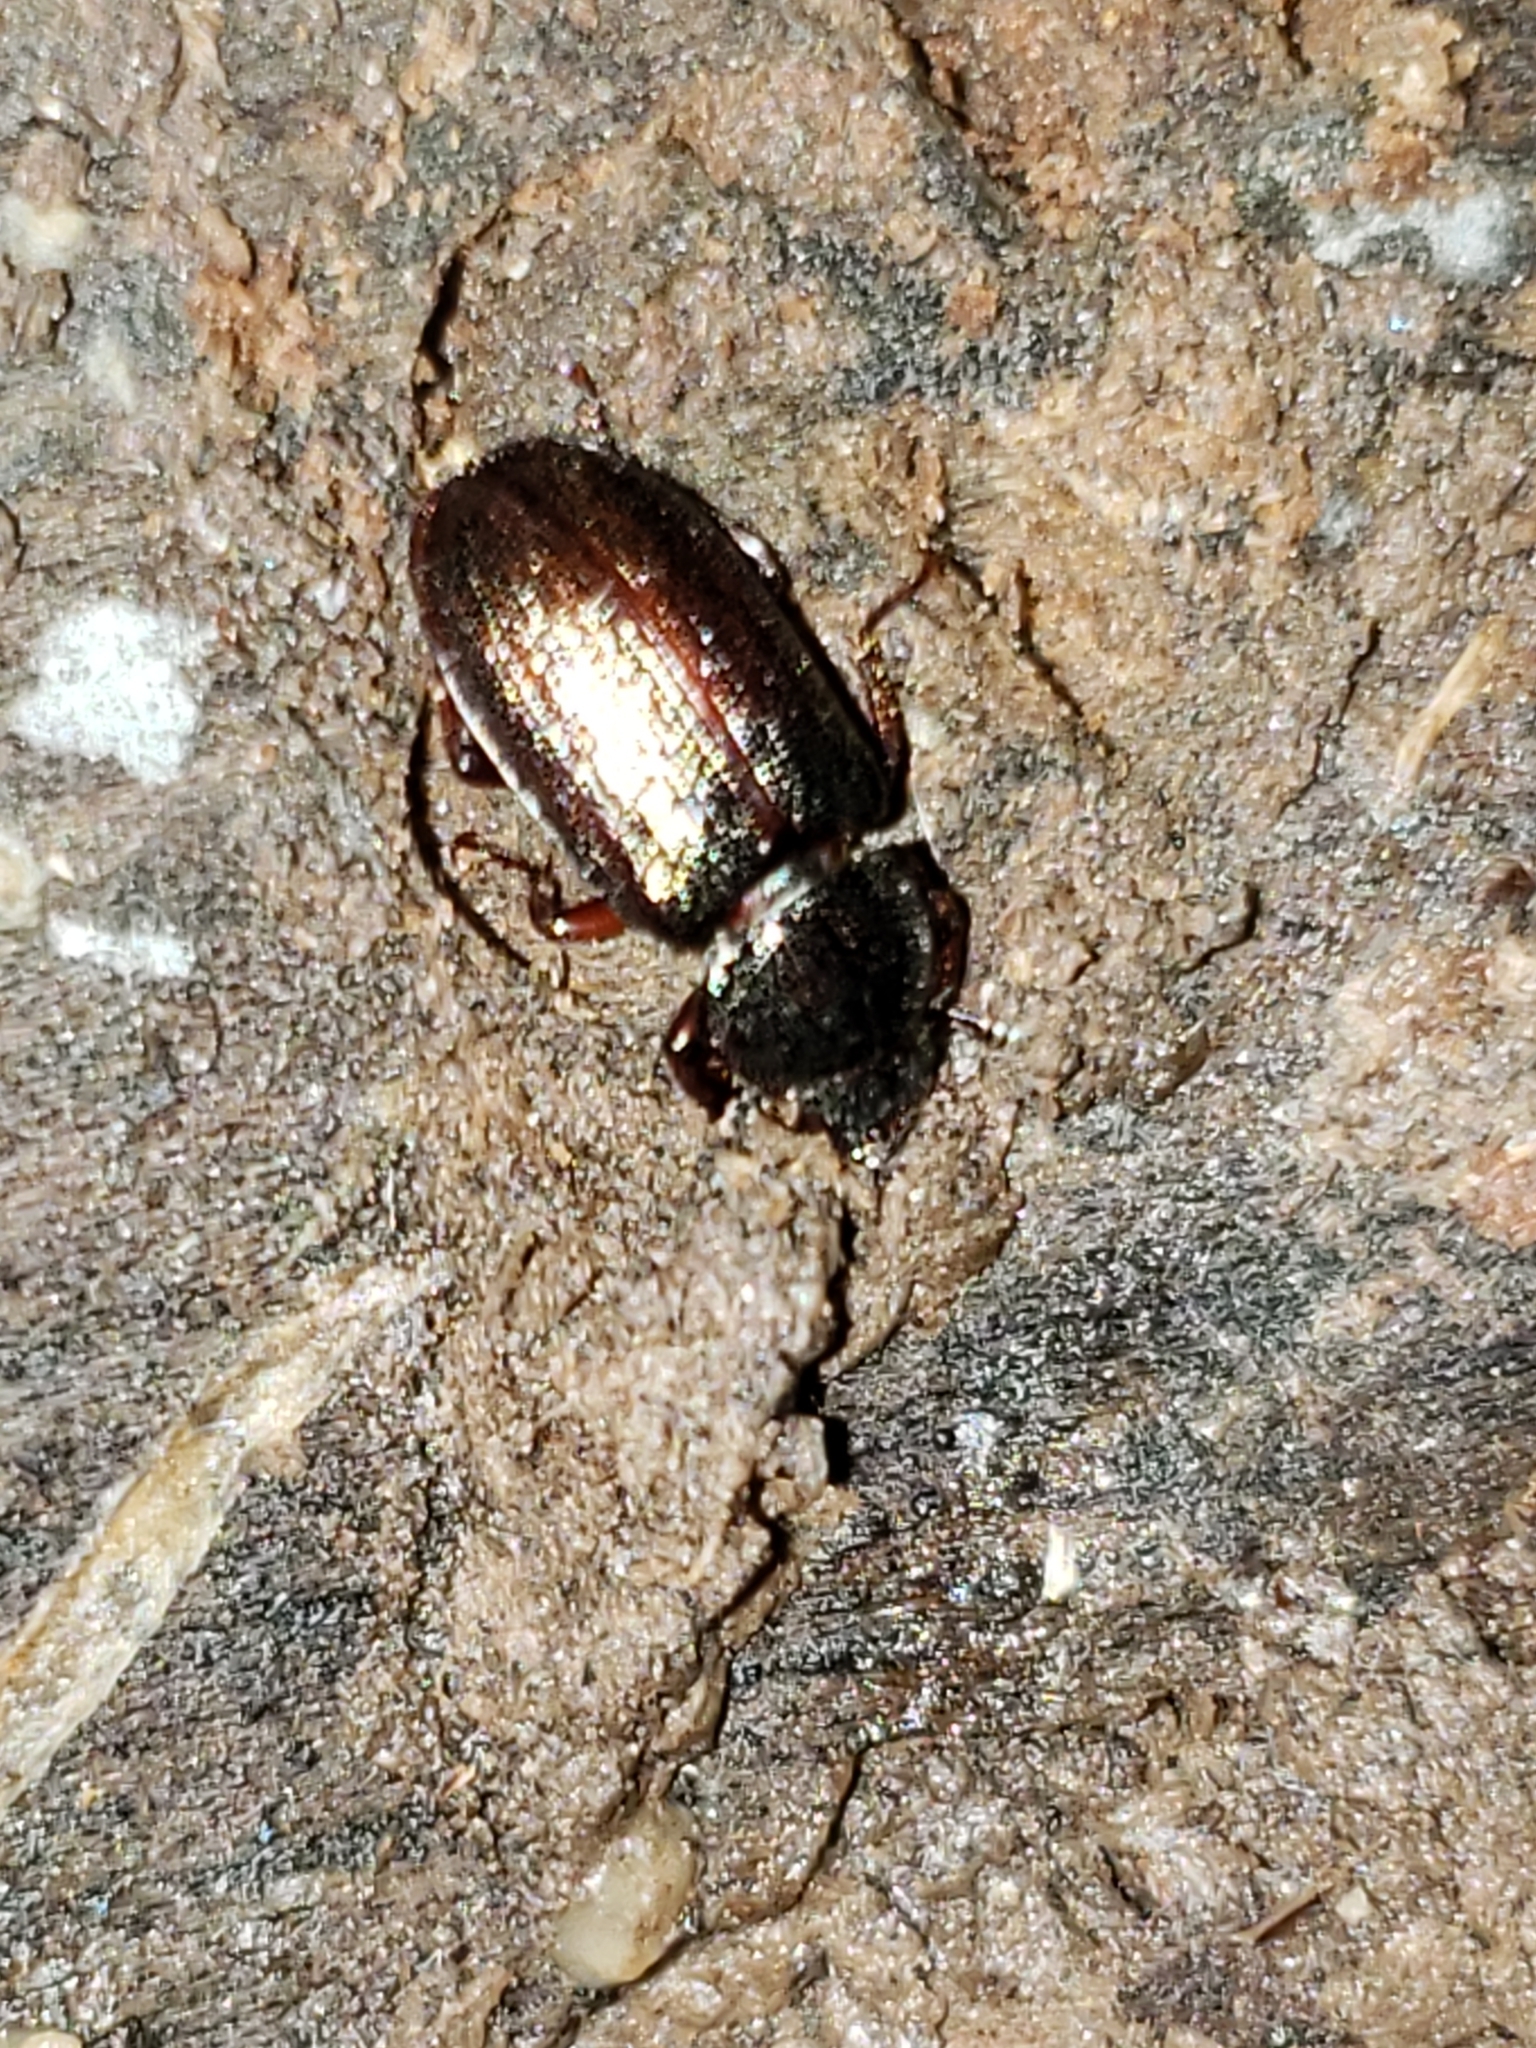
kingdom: Animalia
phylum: Arthropoda
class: Insecta
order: Coleoptera
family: Lucanidae
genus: Platycerus
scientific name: Platycerus quercus
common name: Oak stag beetle
